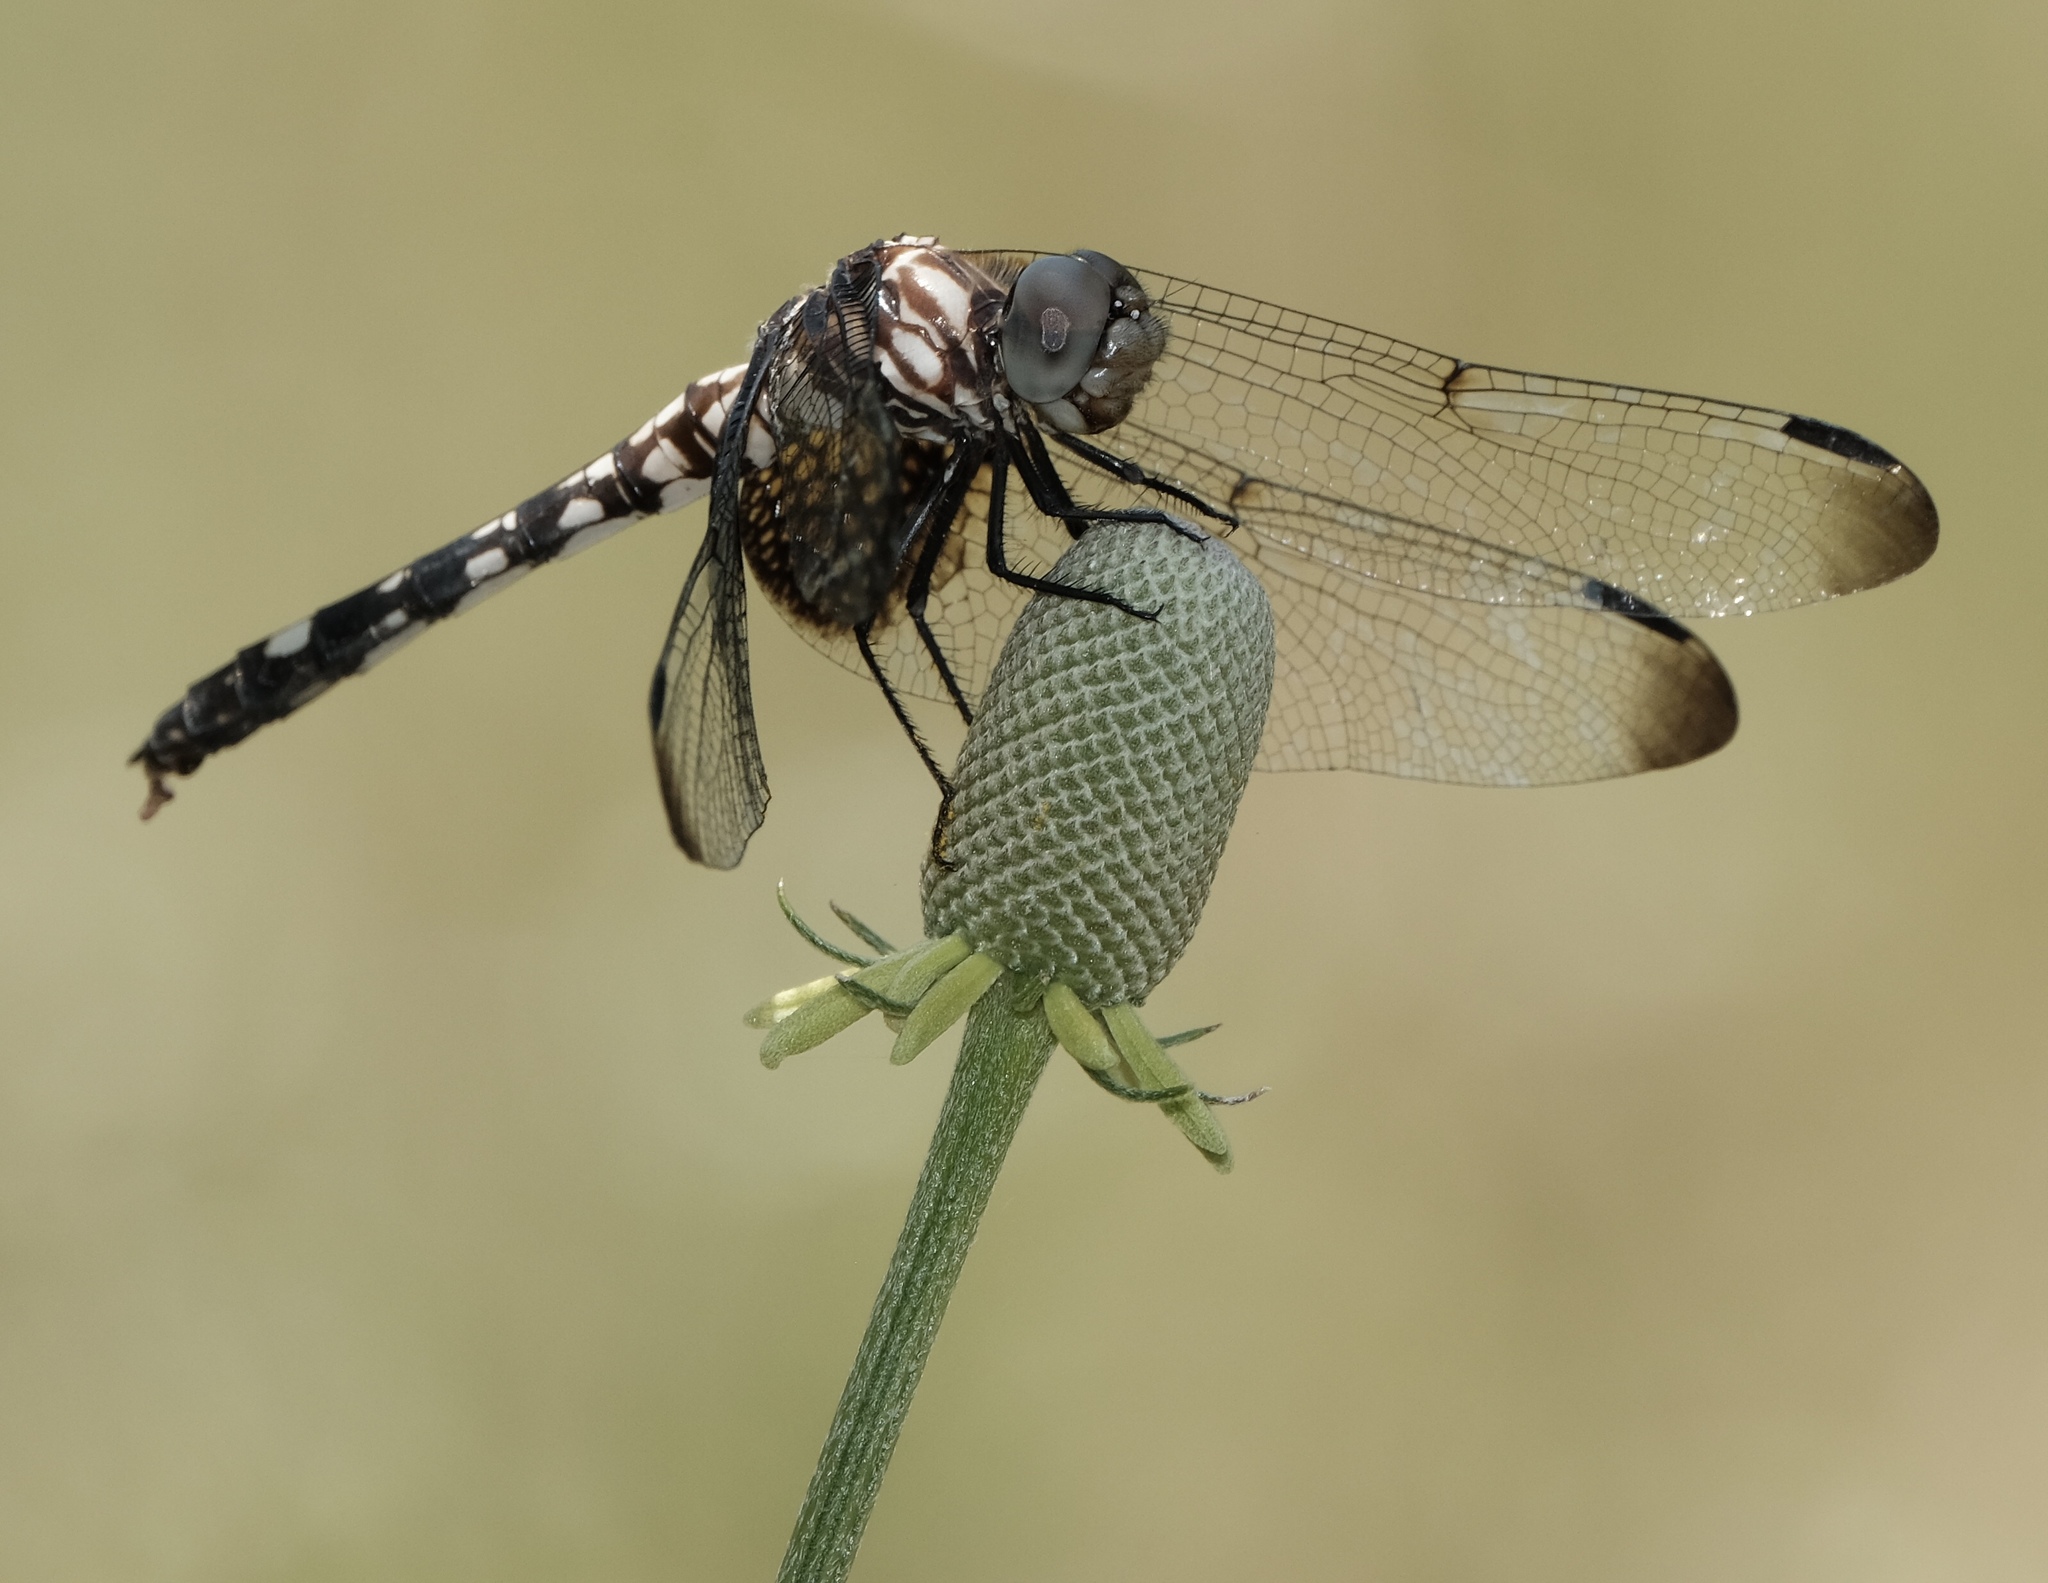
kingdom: Animalia
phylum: Arthropoda
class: Insecta
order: Odonata
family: Libellulidae
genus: Dythemis
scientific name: Dythemis fugax
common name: Checkered setwing
